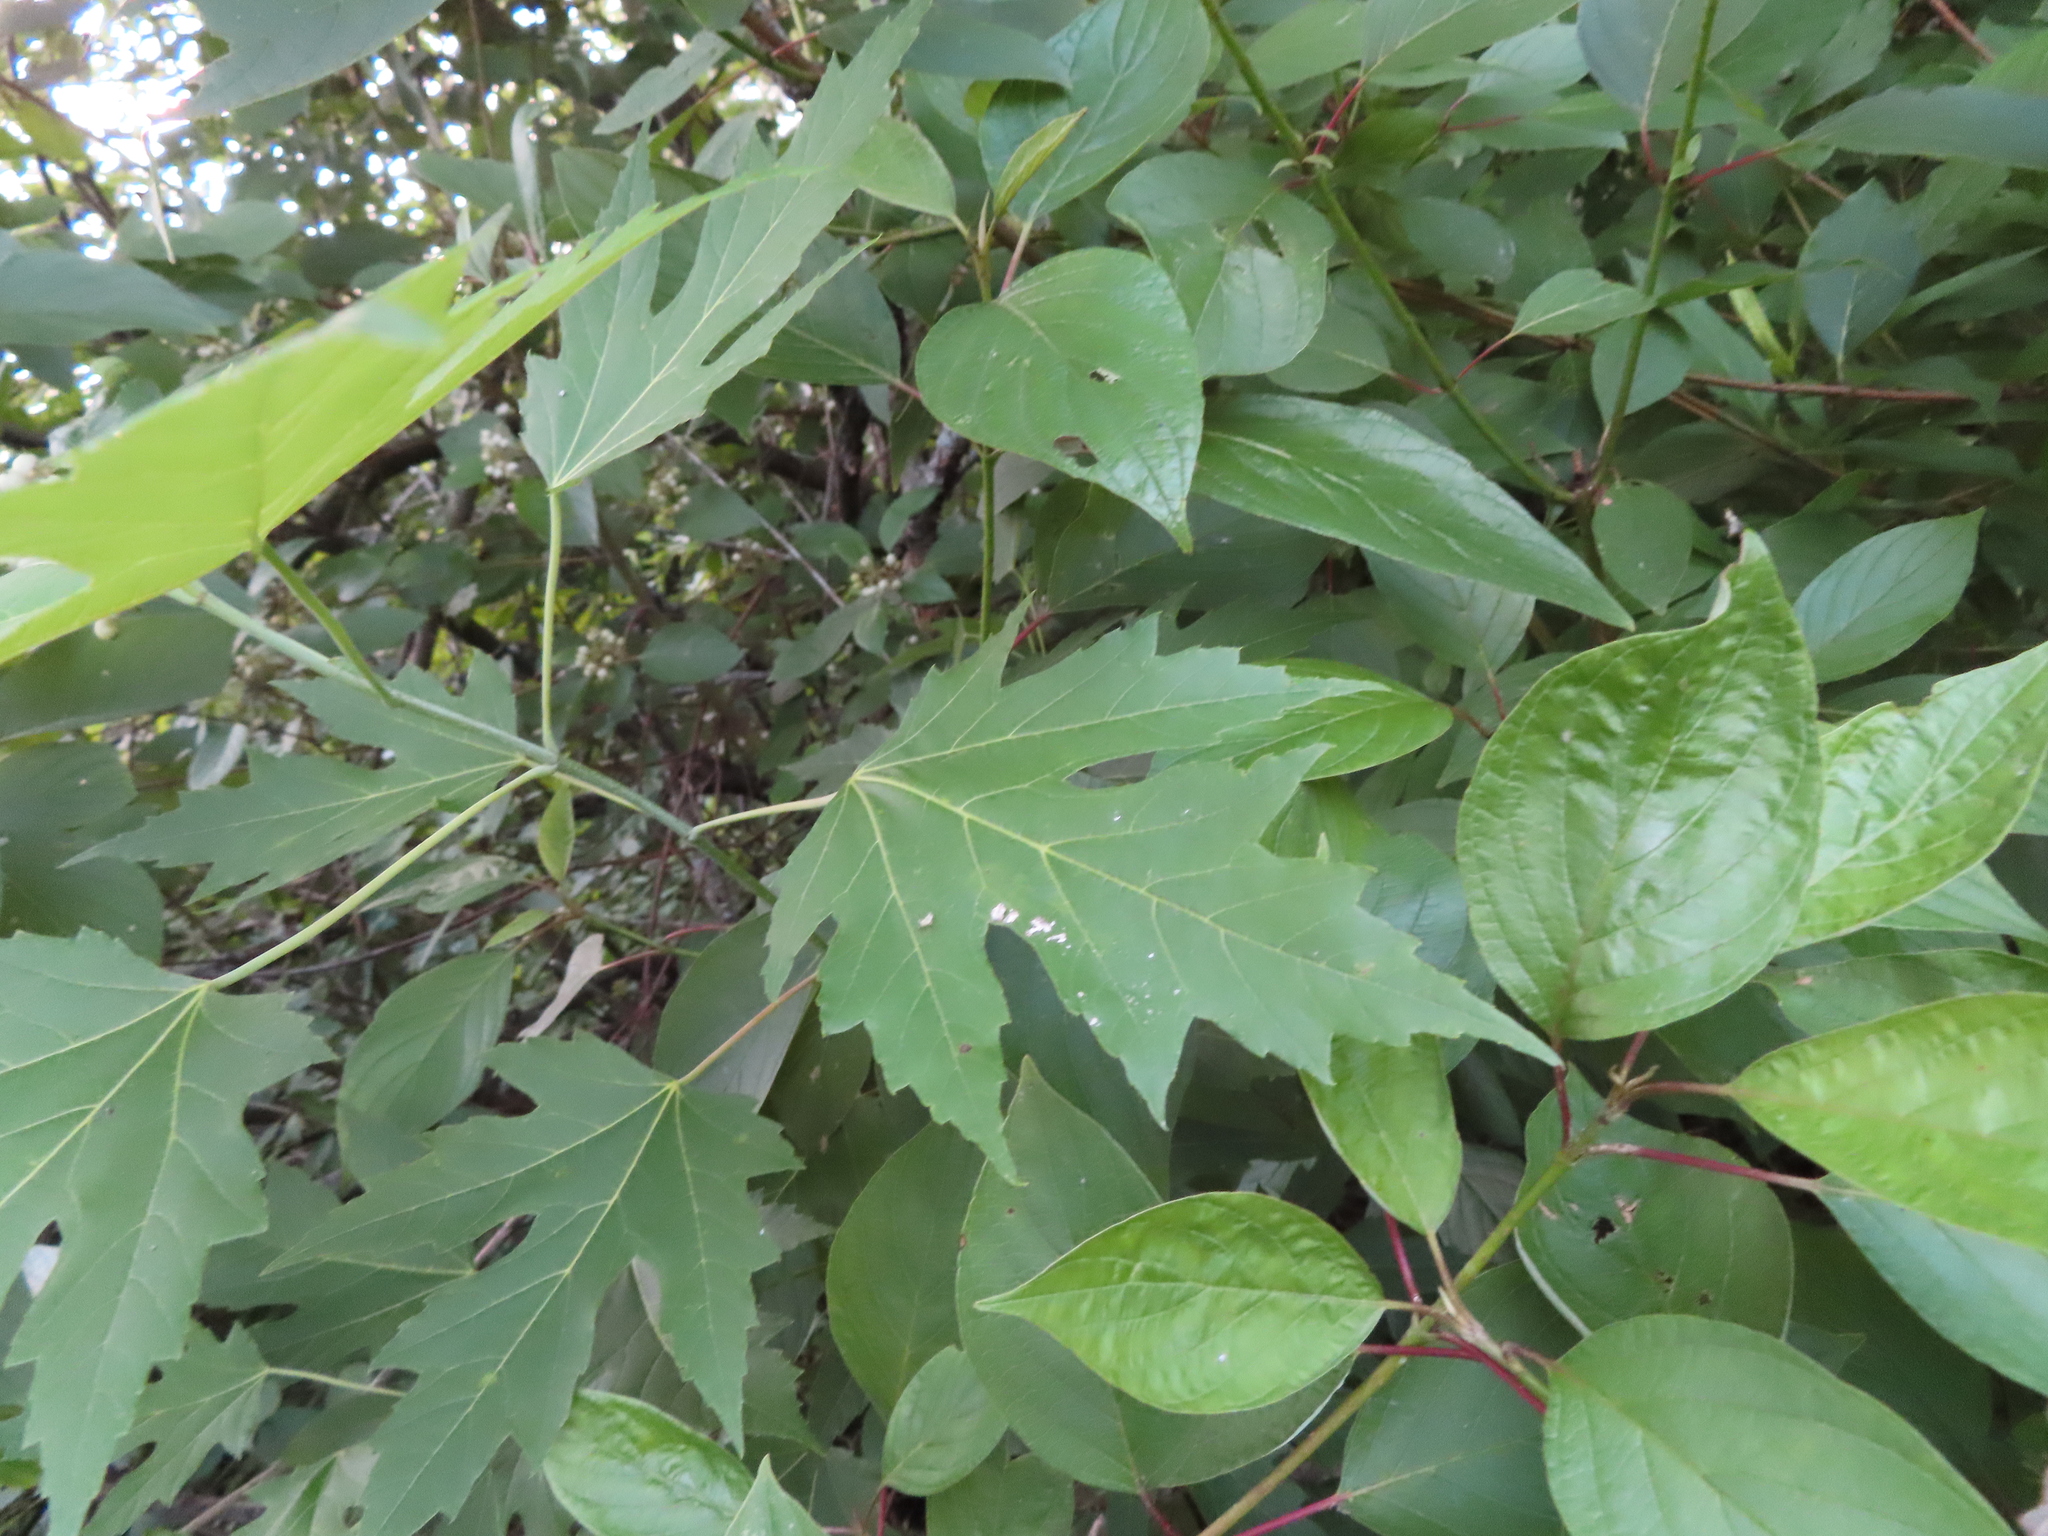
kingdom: Plantae
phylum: Tracheophyta
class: Magnoliopsida
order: Sapindales
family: Sapindaceae
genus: Acer
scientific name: Acer saccharinum
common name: Silver maple
